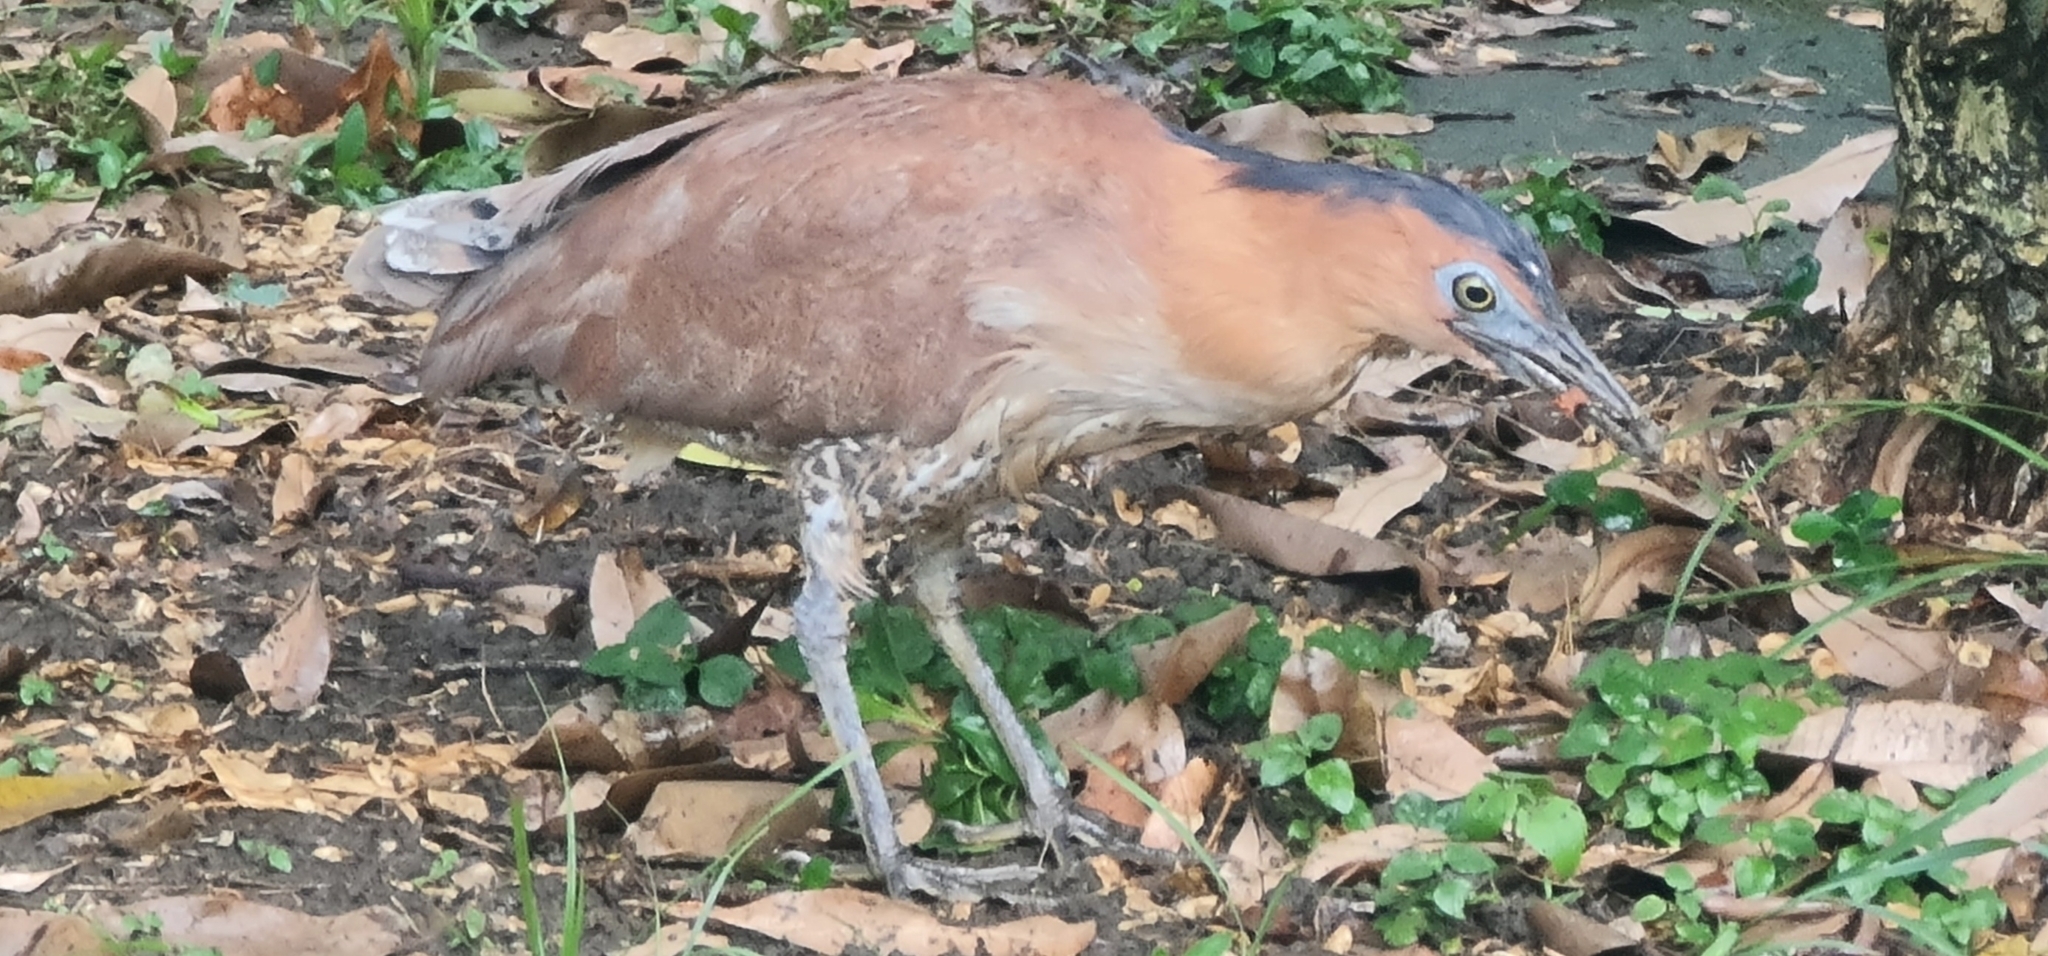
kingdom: Animalia
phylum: Chordata
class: Aves
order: Pelecaniformes
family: Ardeidae
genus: Gorsachius
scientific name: Gorsachius melanolophus
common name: Malayan night heron
